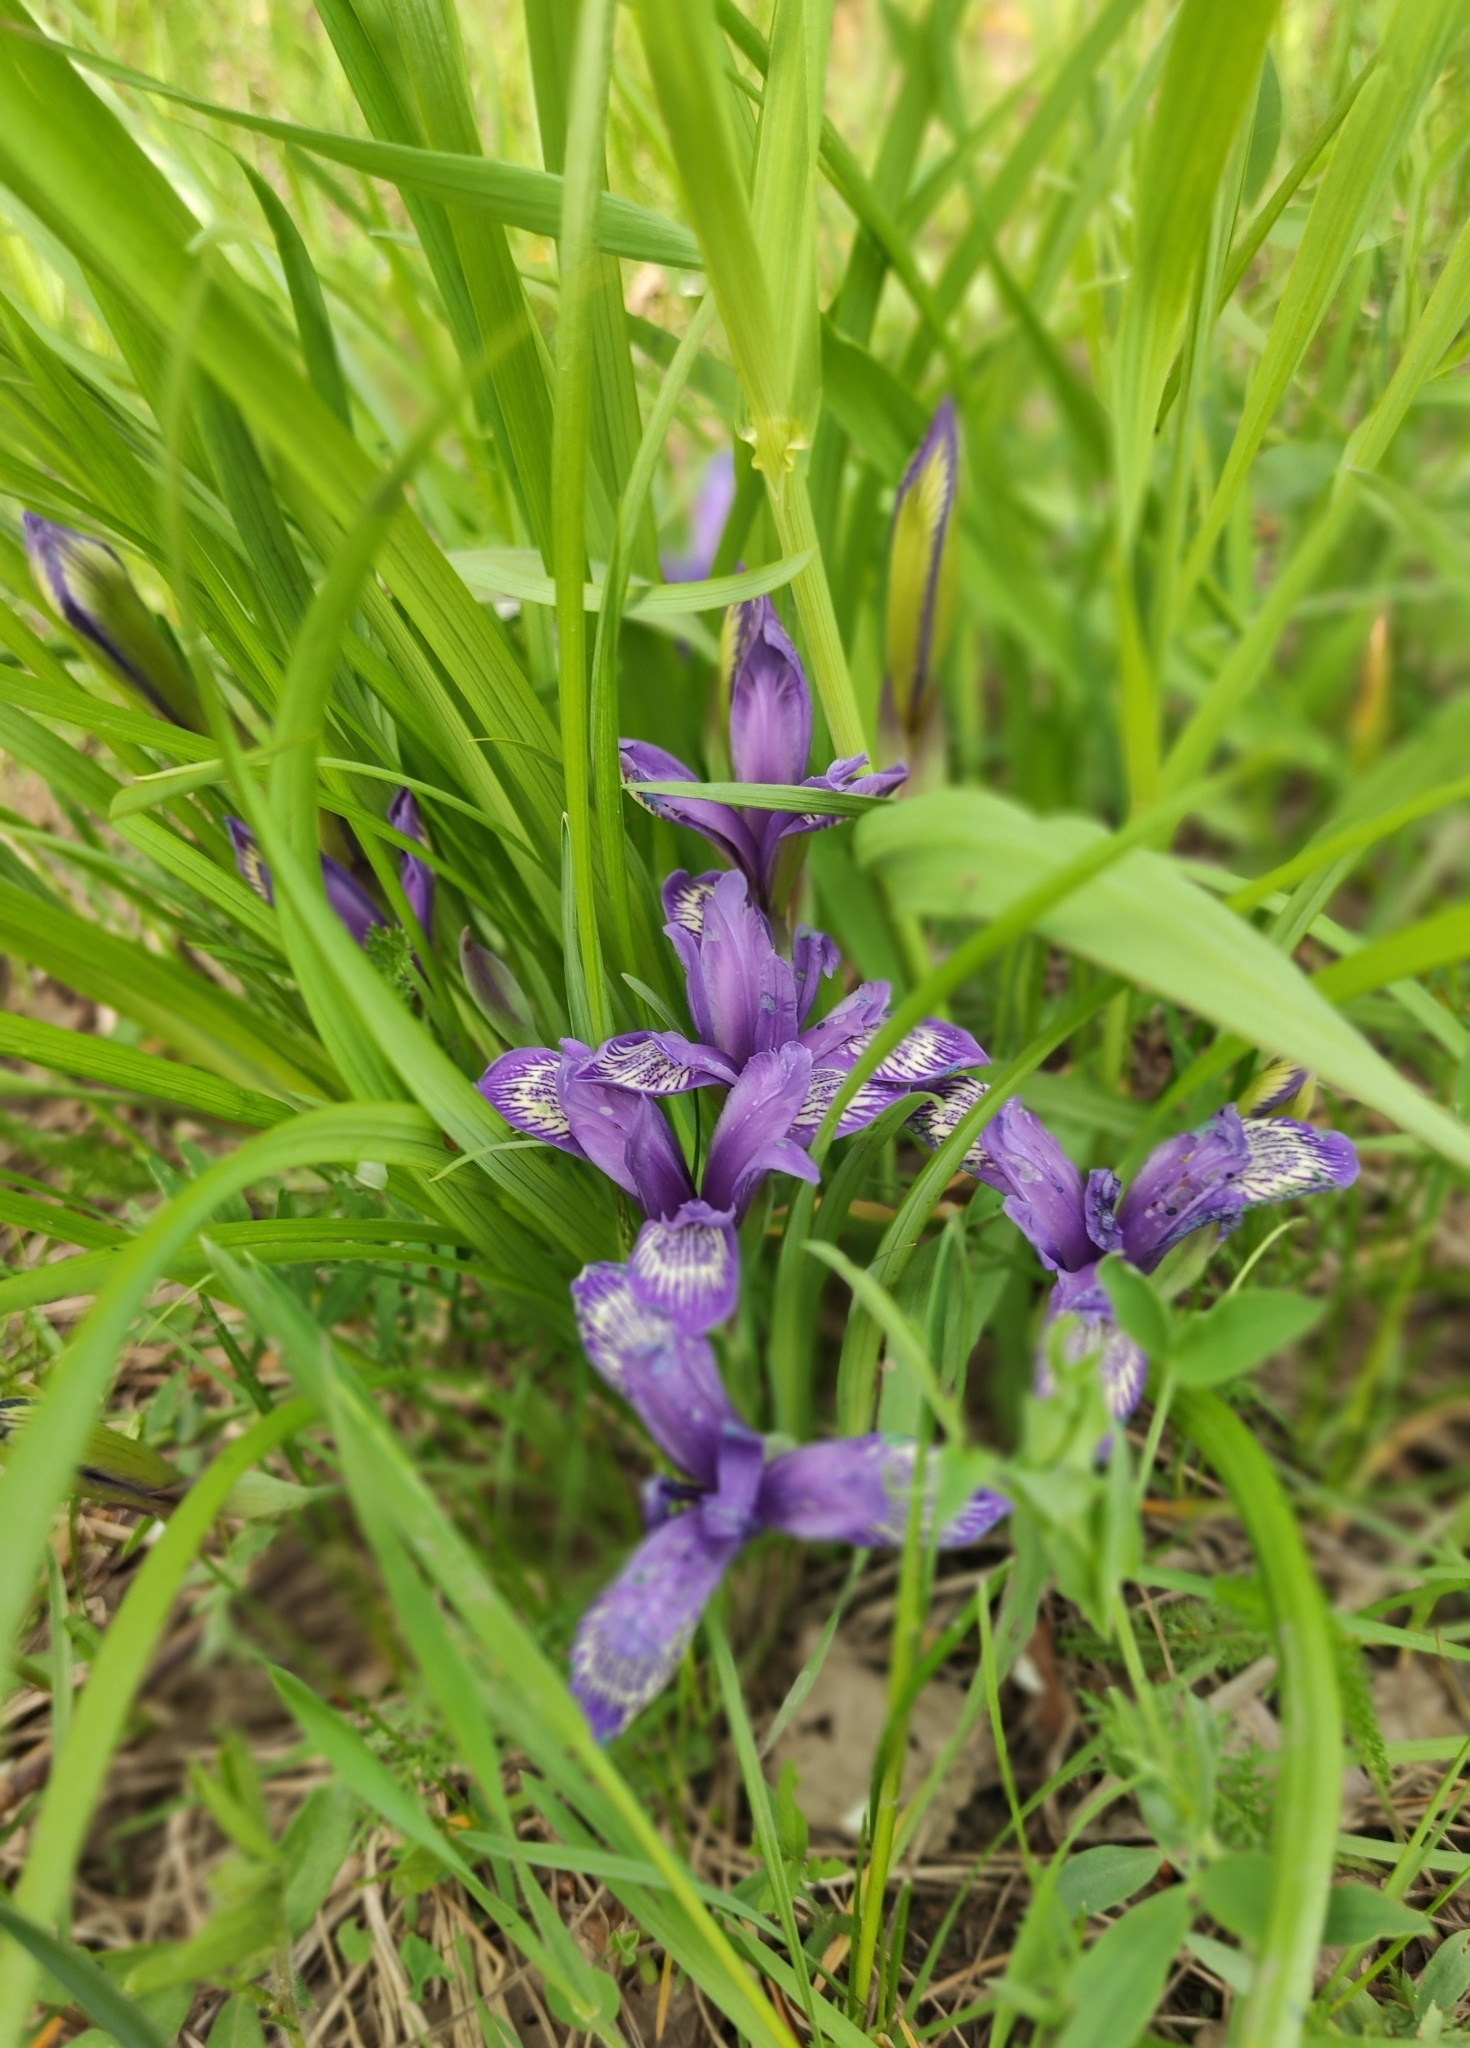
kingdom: Plantae
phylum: Tracheophyta
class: Liliopsida
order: Asparagales
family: Iridaceae
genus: Iris
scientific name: Iris ruthenica
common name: Purple-bract iris
